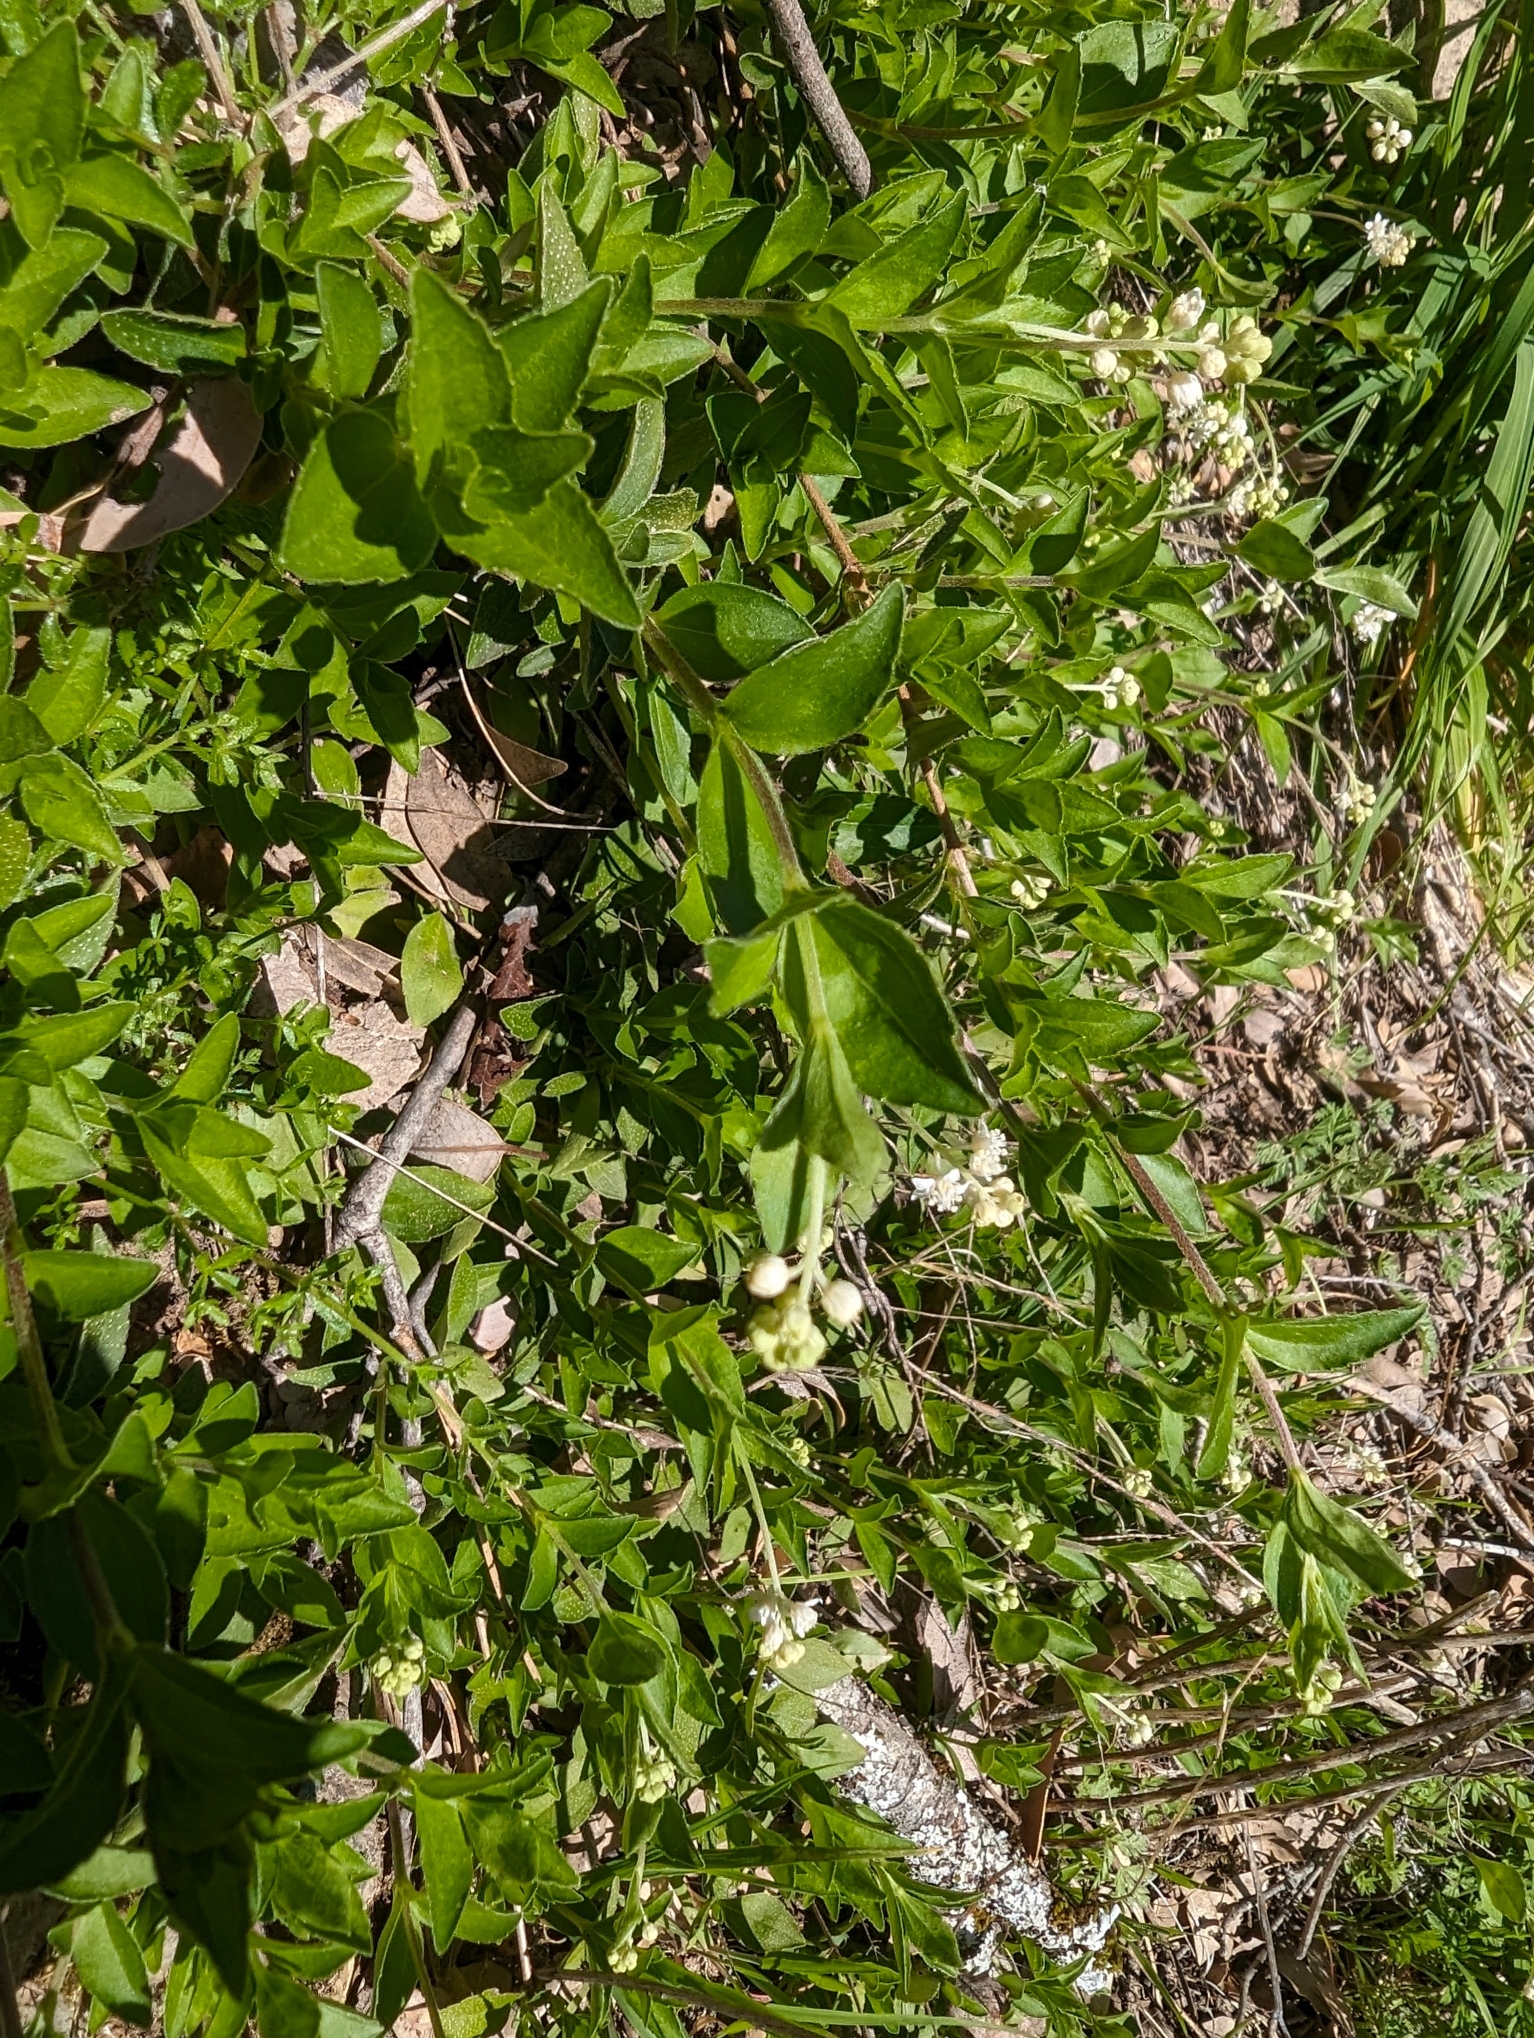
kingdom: Plantae
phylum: Tracheophyta
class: Magnoliopsida
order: Cornales
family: Hydrangeaceae
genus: Whipplea
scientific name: Whipplea modesta
